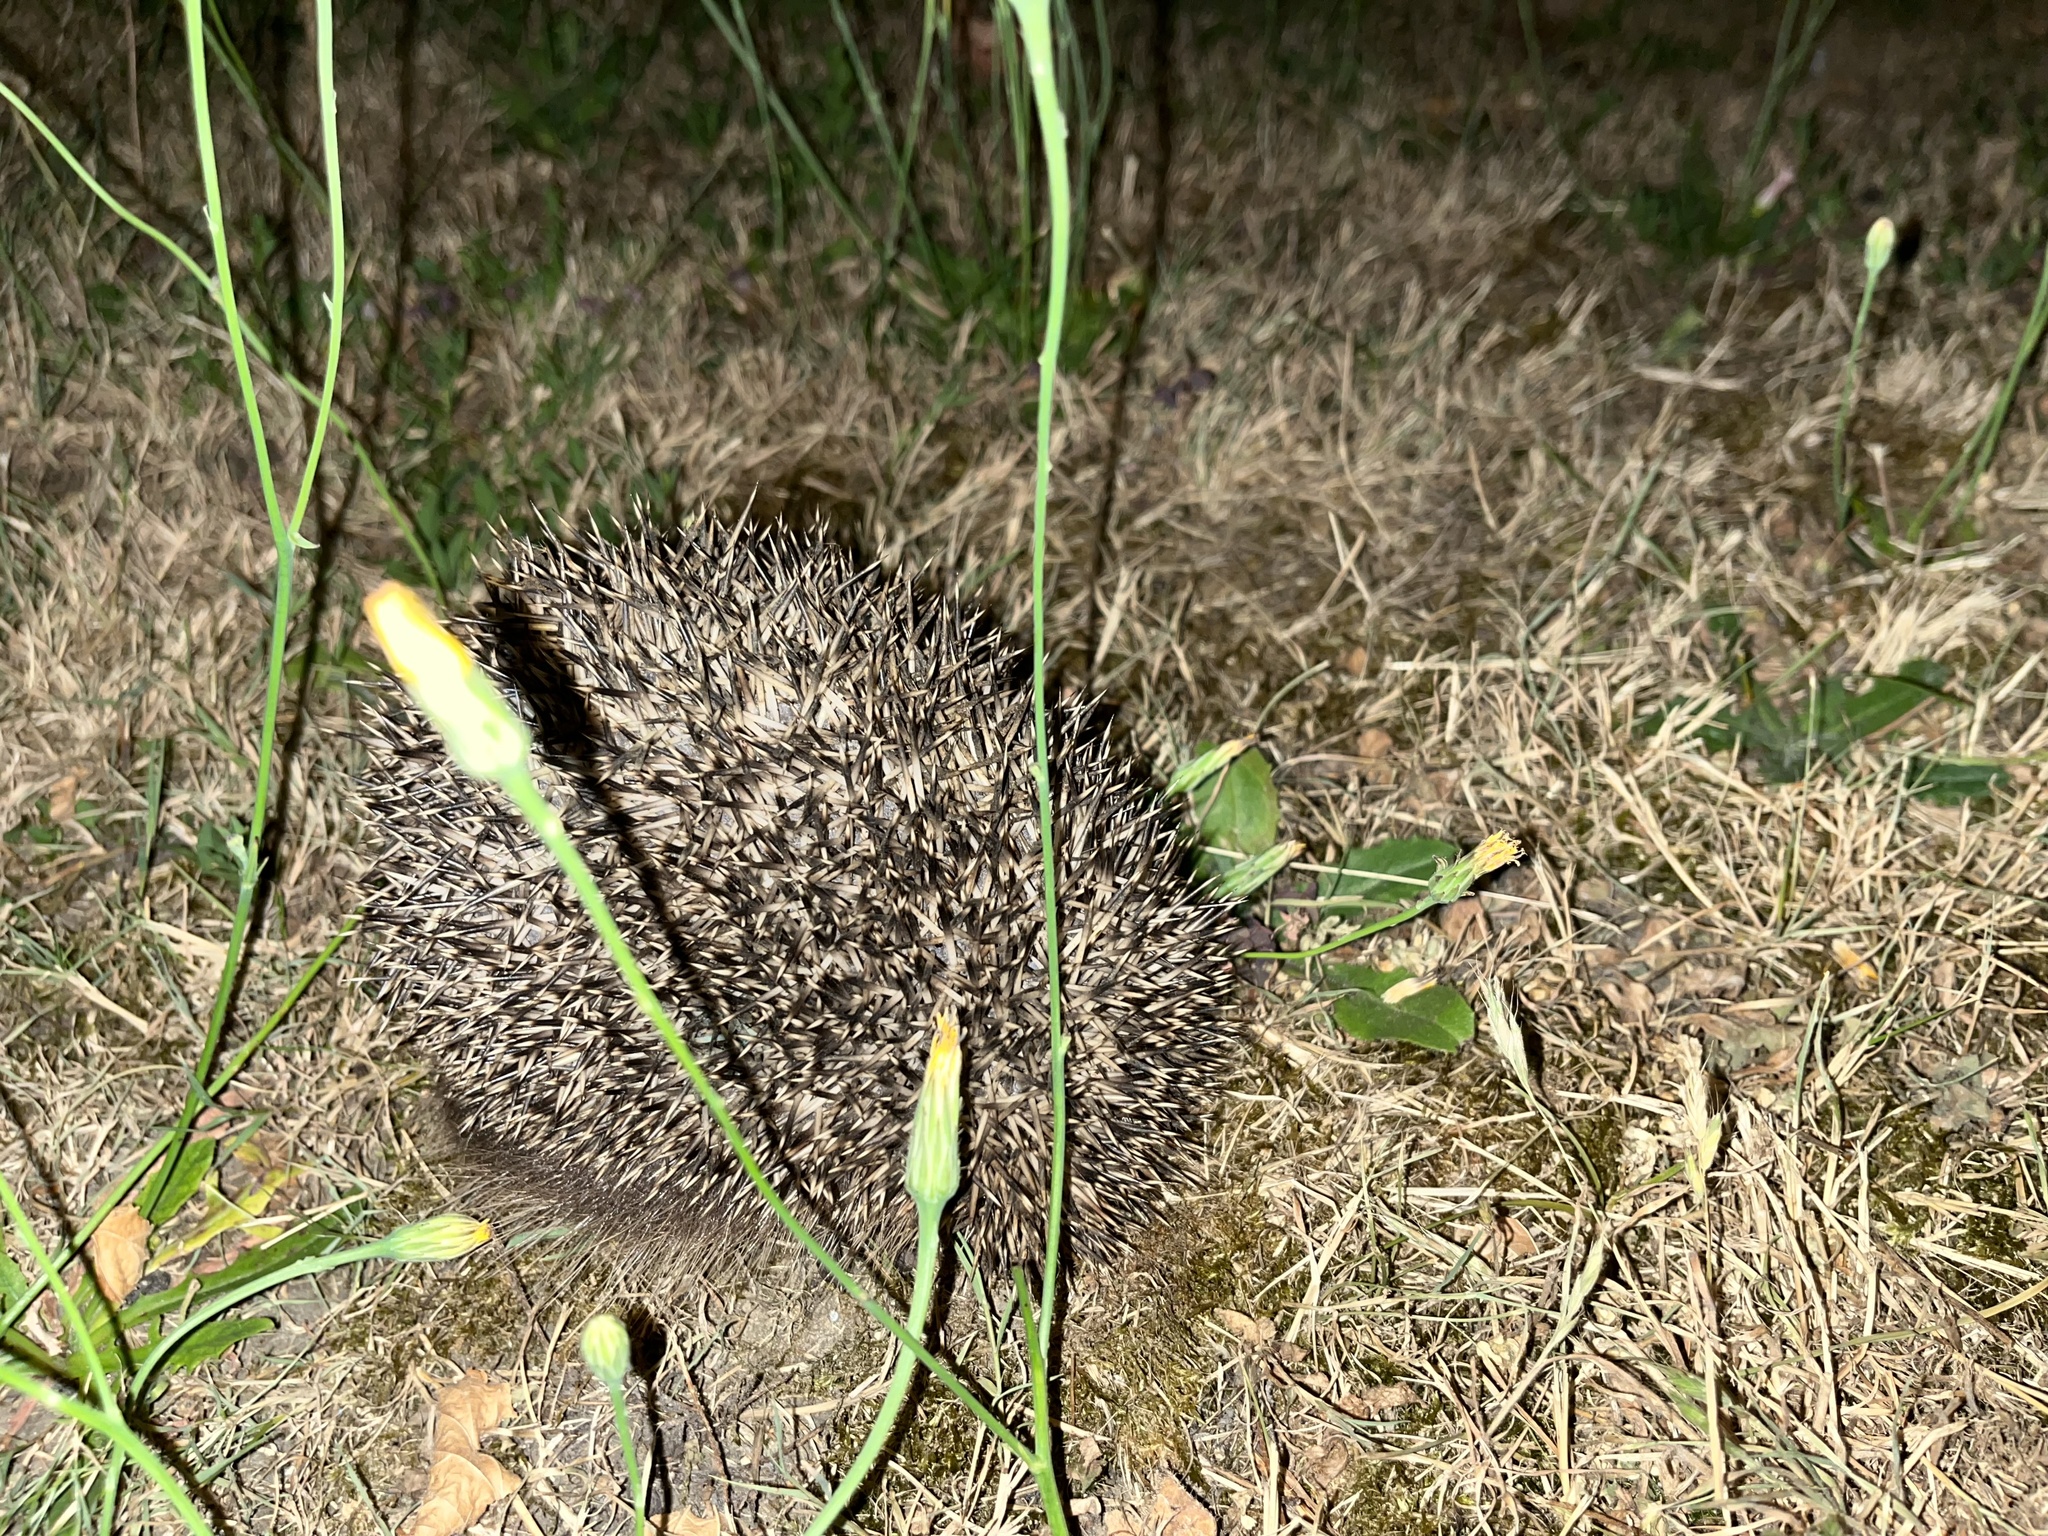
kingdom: Animalia
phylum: Chordata
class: Mammalia
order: Erinaceomorpha
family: Erinaceidae
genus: Erinaceus
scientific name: Erinaceus europaeus
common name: West european hedgehog
